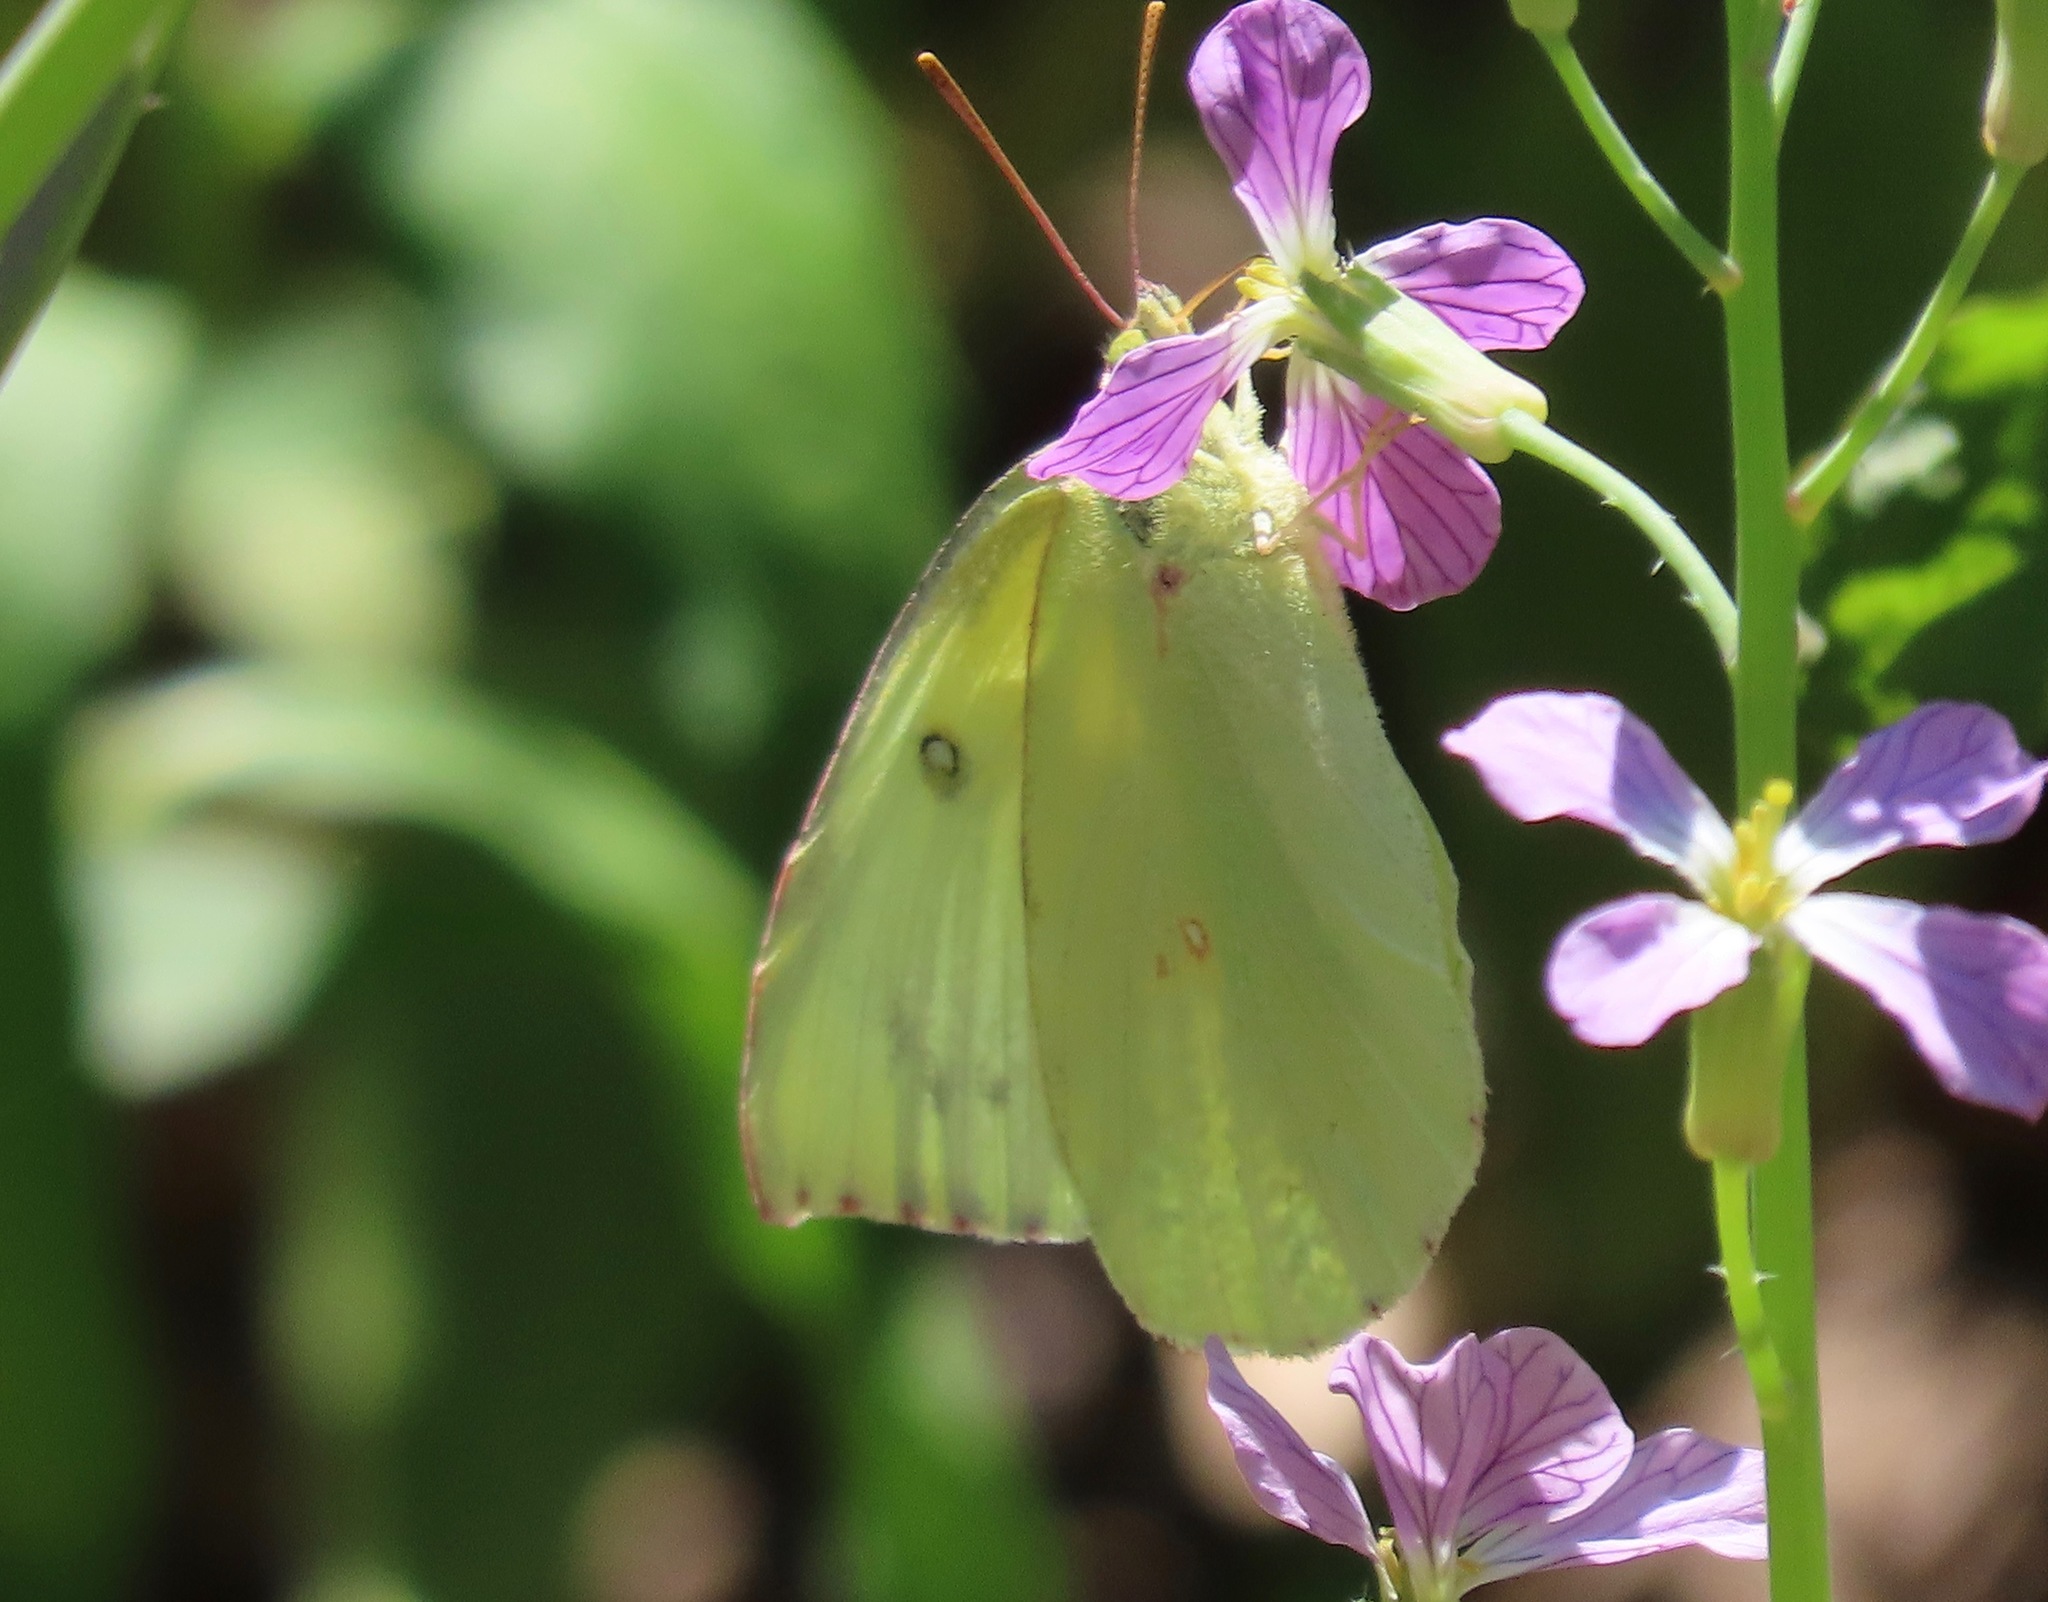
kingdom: Animalia
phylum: Arthropoda
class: Insecta
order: Lepidoptera
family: Pieridae
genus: Zerene
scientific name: Zerene eurydice
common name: California dogface
